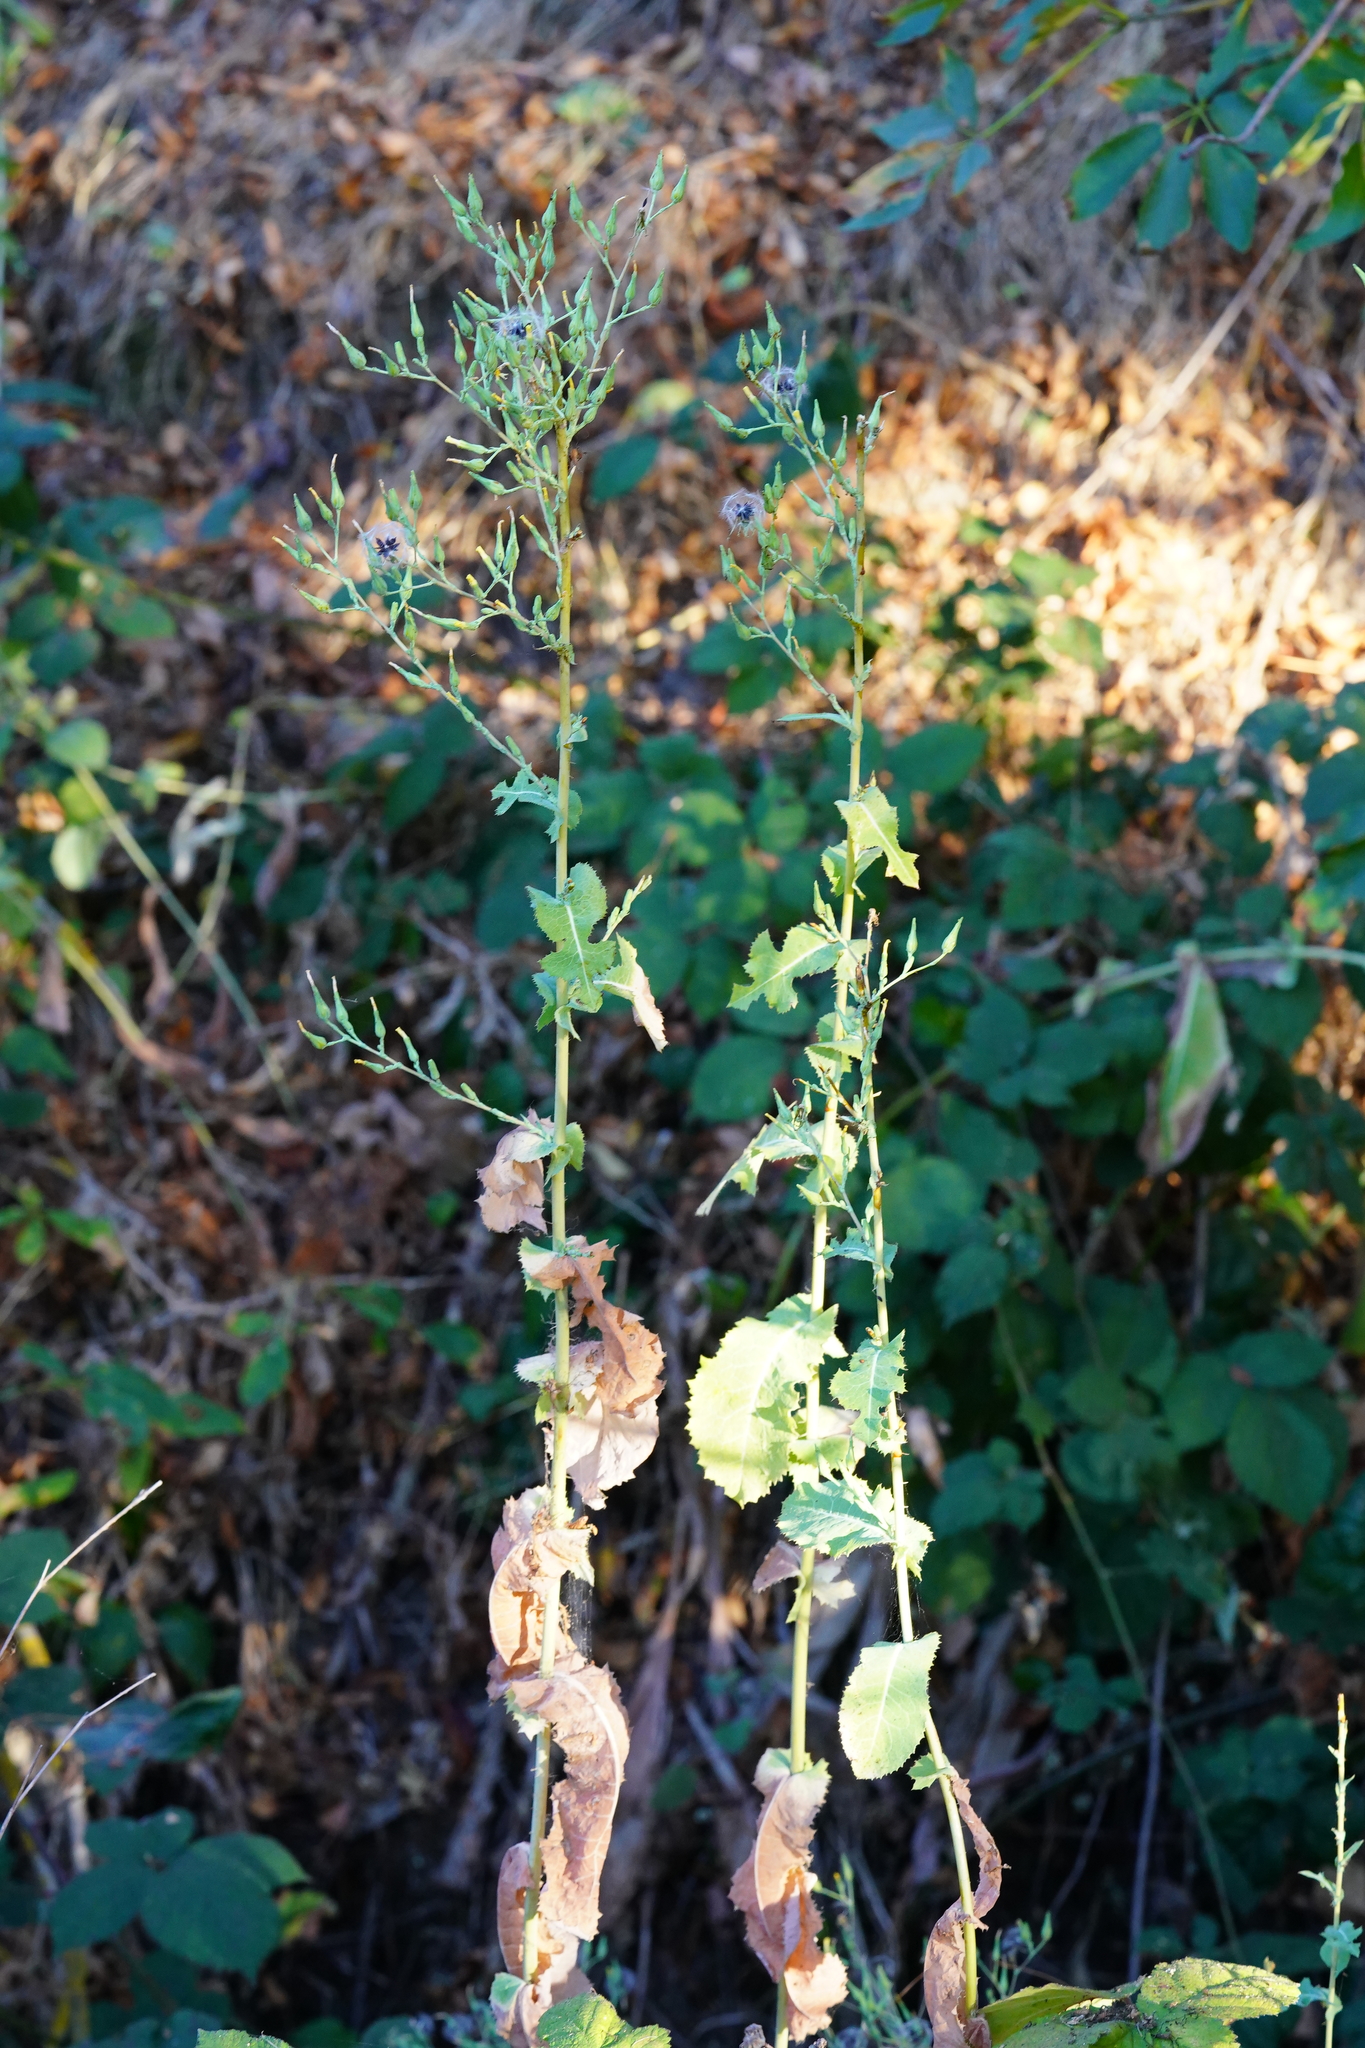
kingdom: Plantae
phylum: Tracheophyta
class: Magnoliopsida
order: Asterales
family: Asteraceae
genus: Lactuca
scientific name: Lactuca serriola
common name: Prickly lettuce
